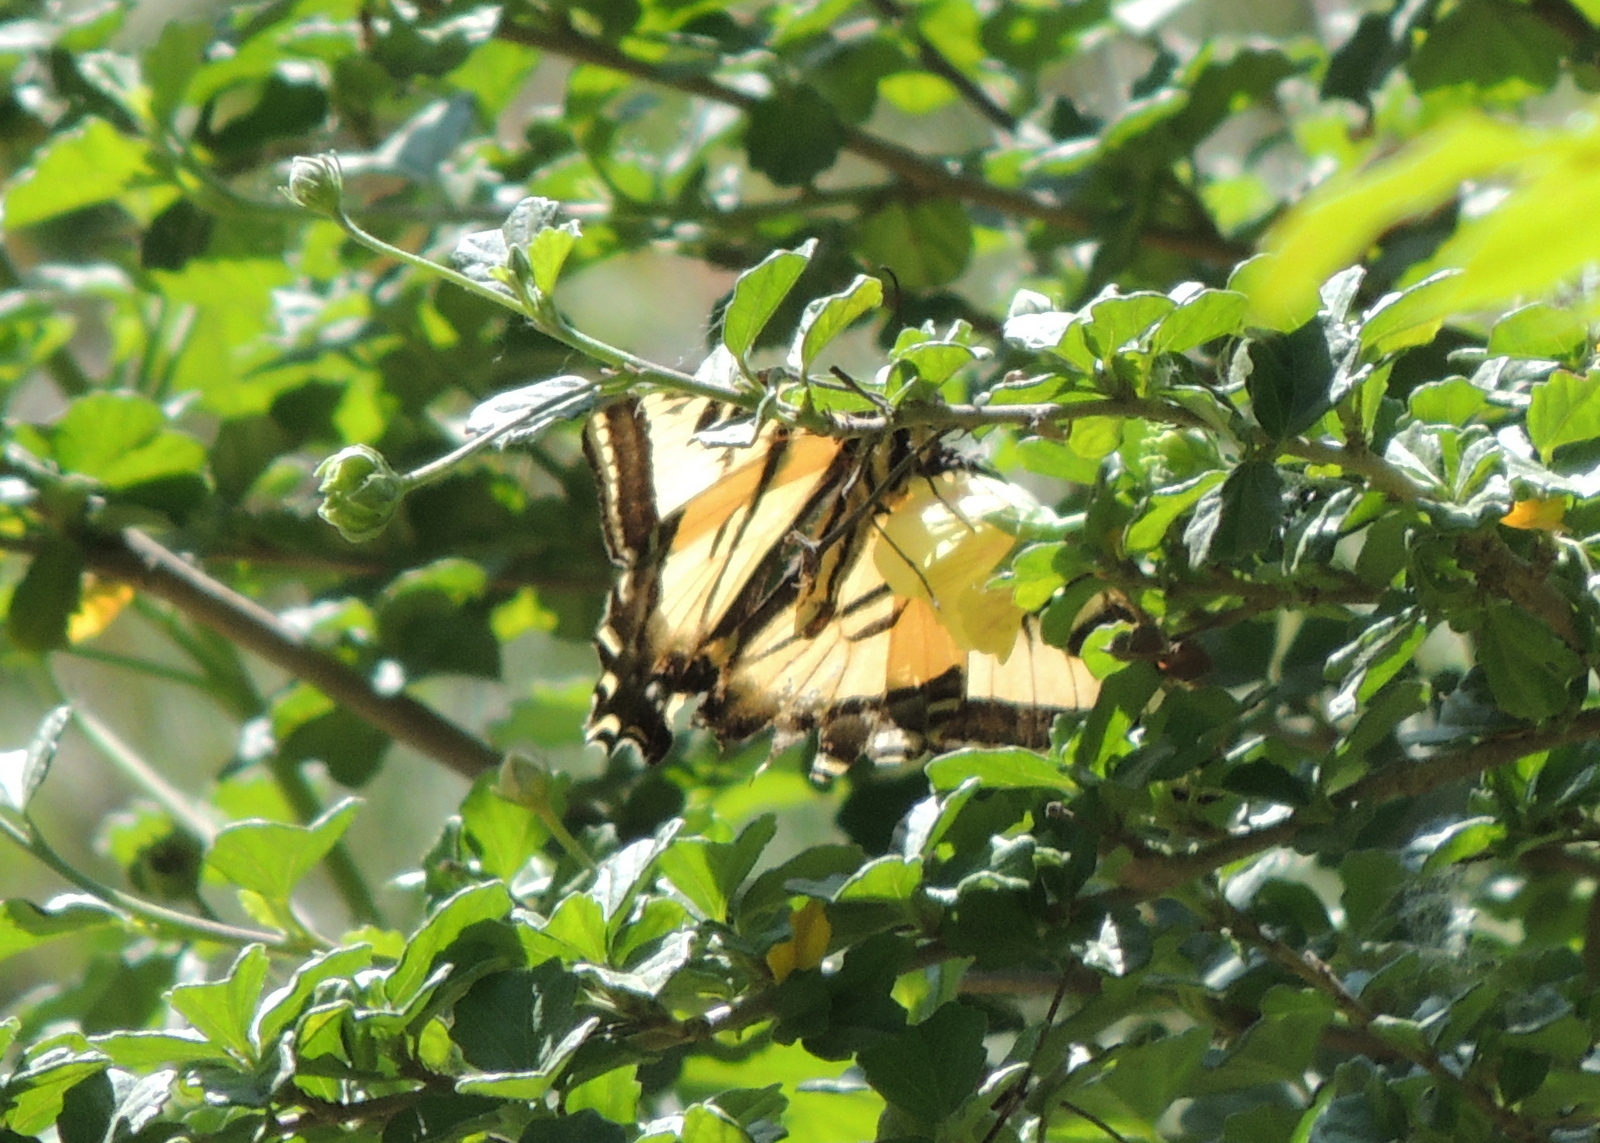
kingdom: Animalia
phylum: Arthropoda
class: Insecta
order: Lepidoptera
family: Papilionidae
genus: Papilio
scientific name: Papilio rutulus
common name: Western tiger swallowtail
